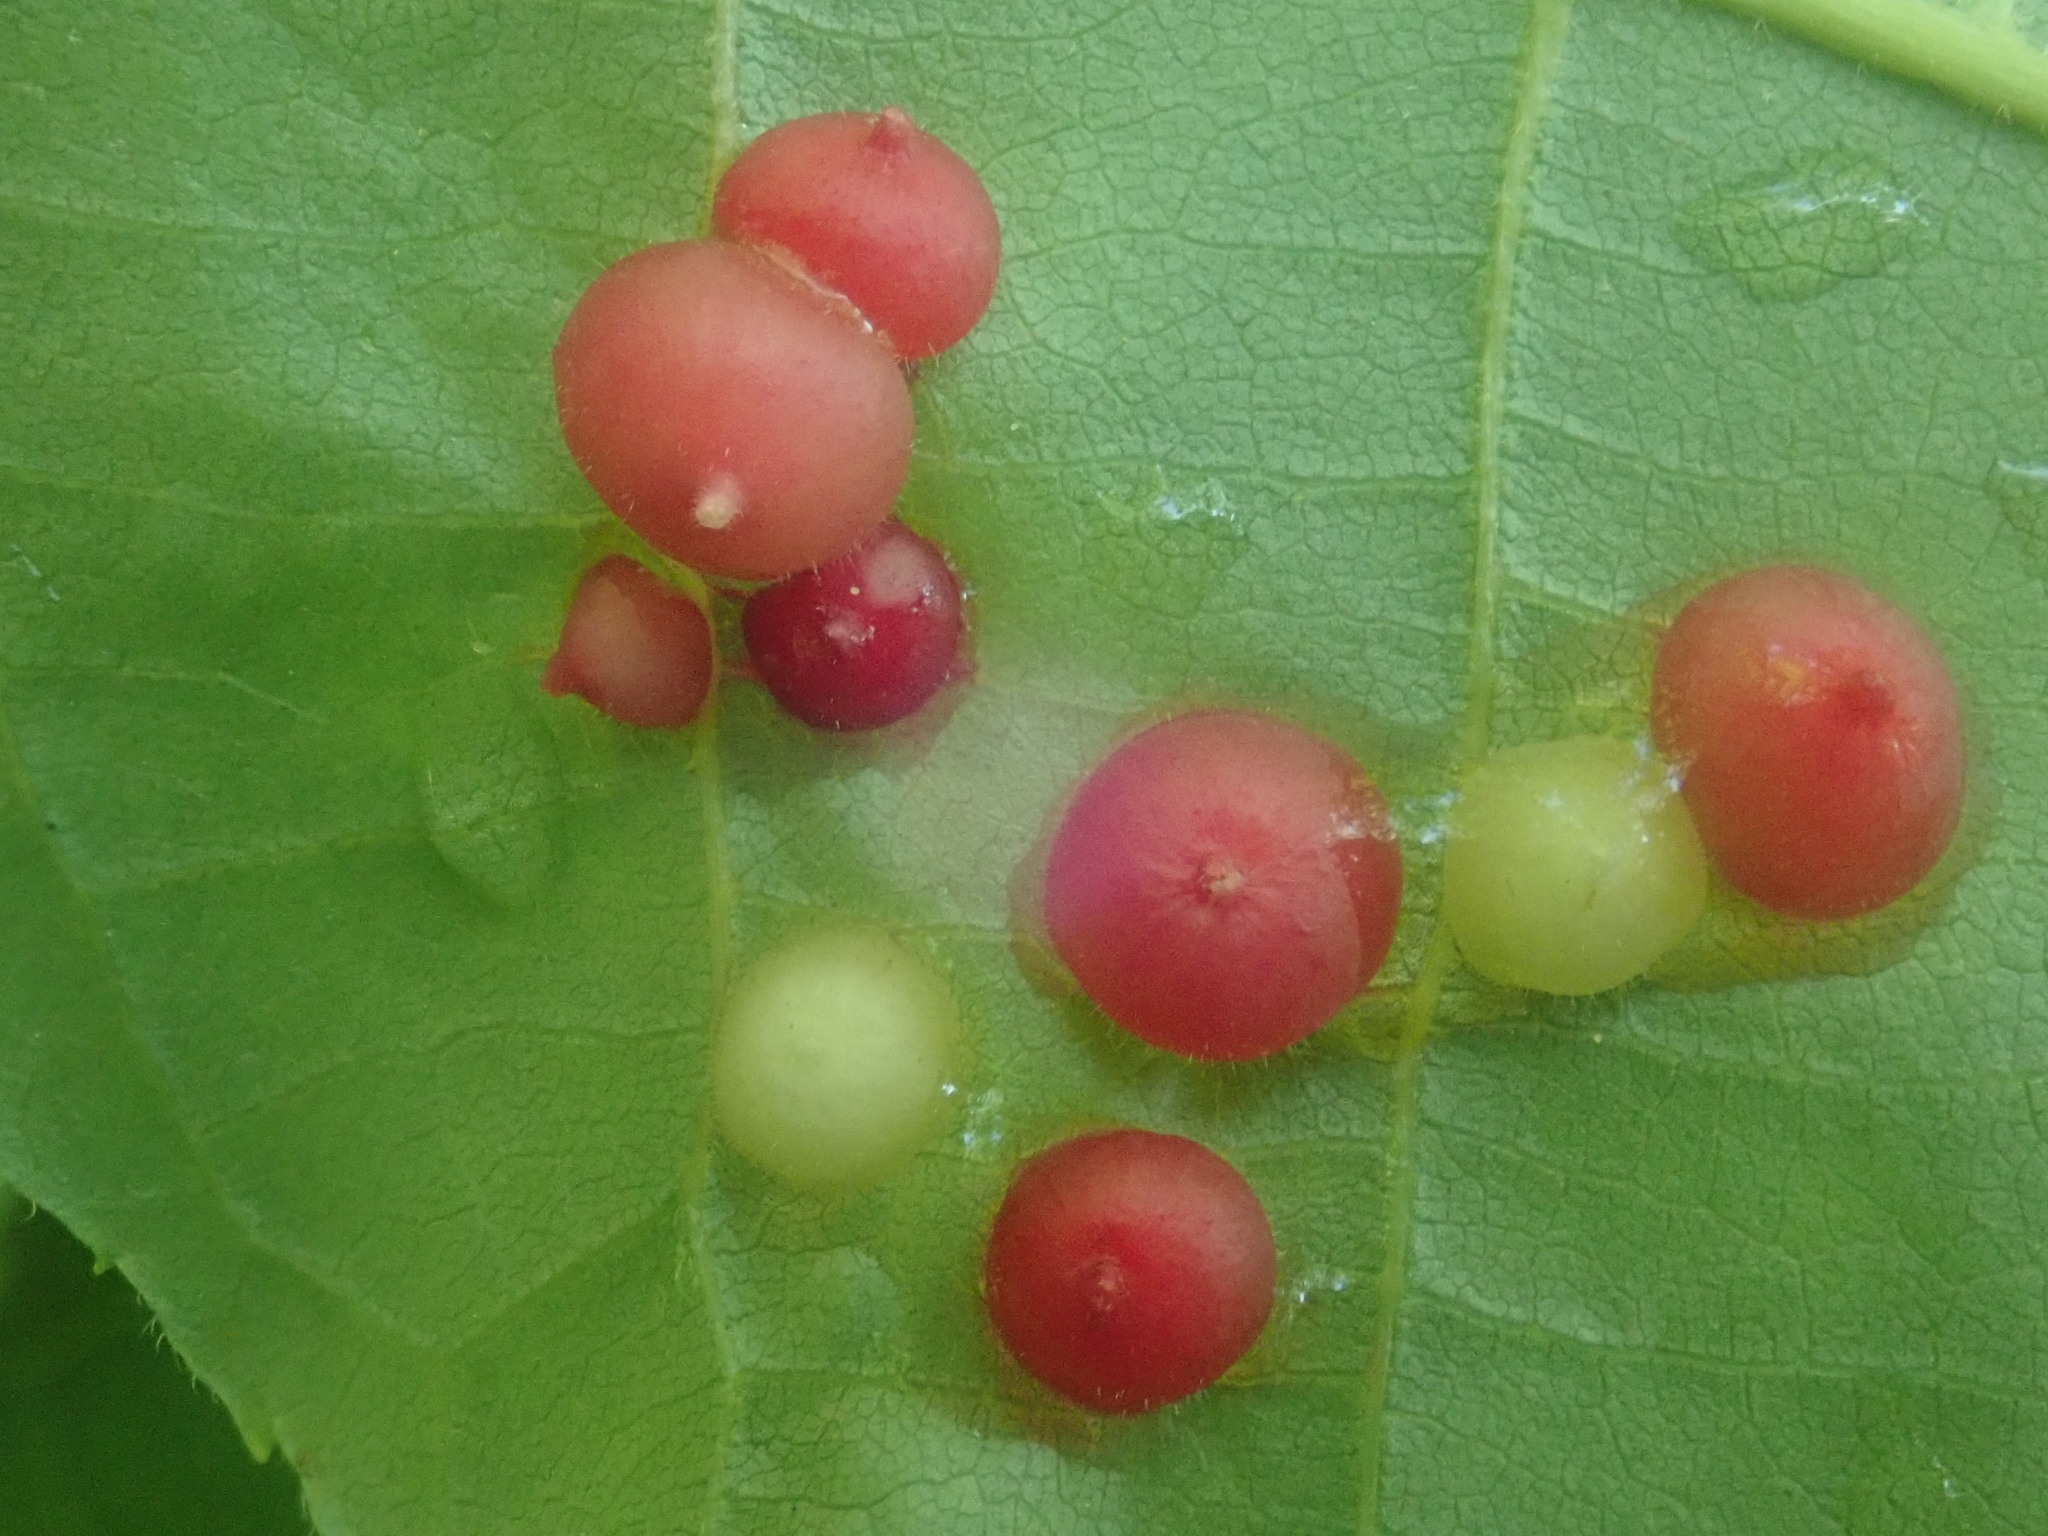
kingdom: Animalia
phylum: Arthropoda
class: Insecta
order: Diptera
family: Cecidomyiidae
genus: Caryomyia
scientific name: Caryomyia conoidea
